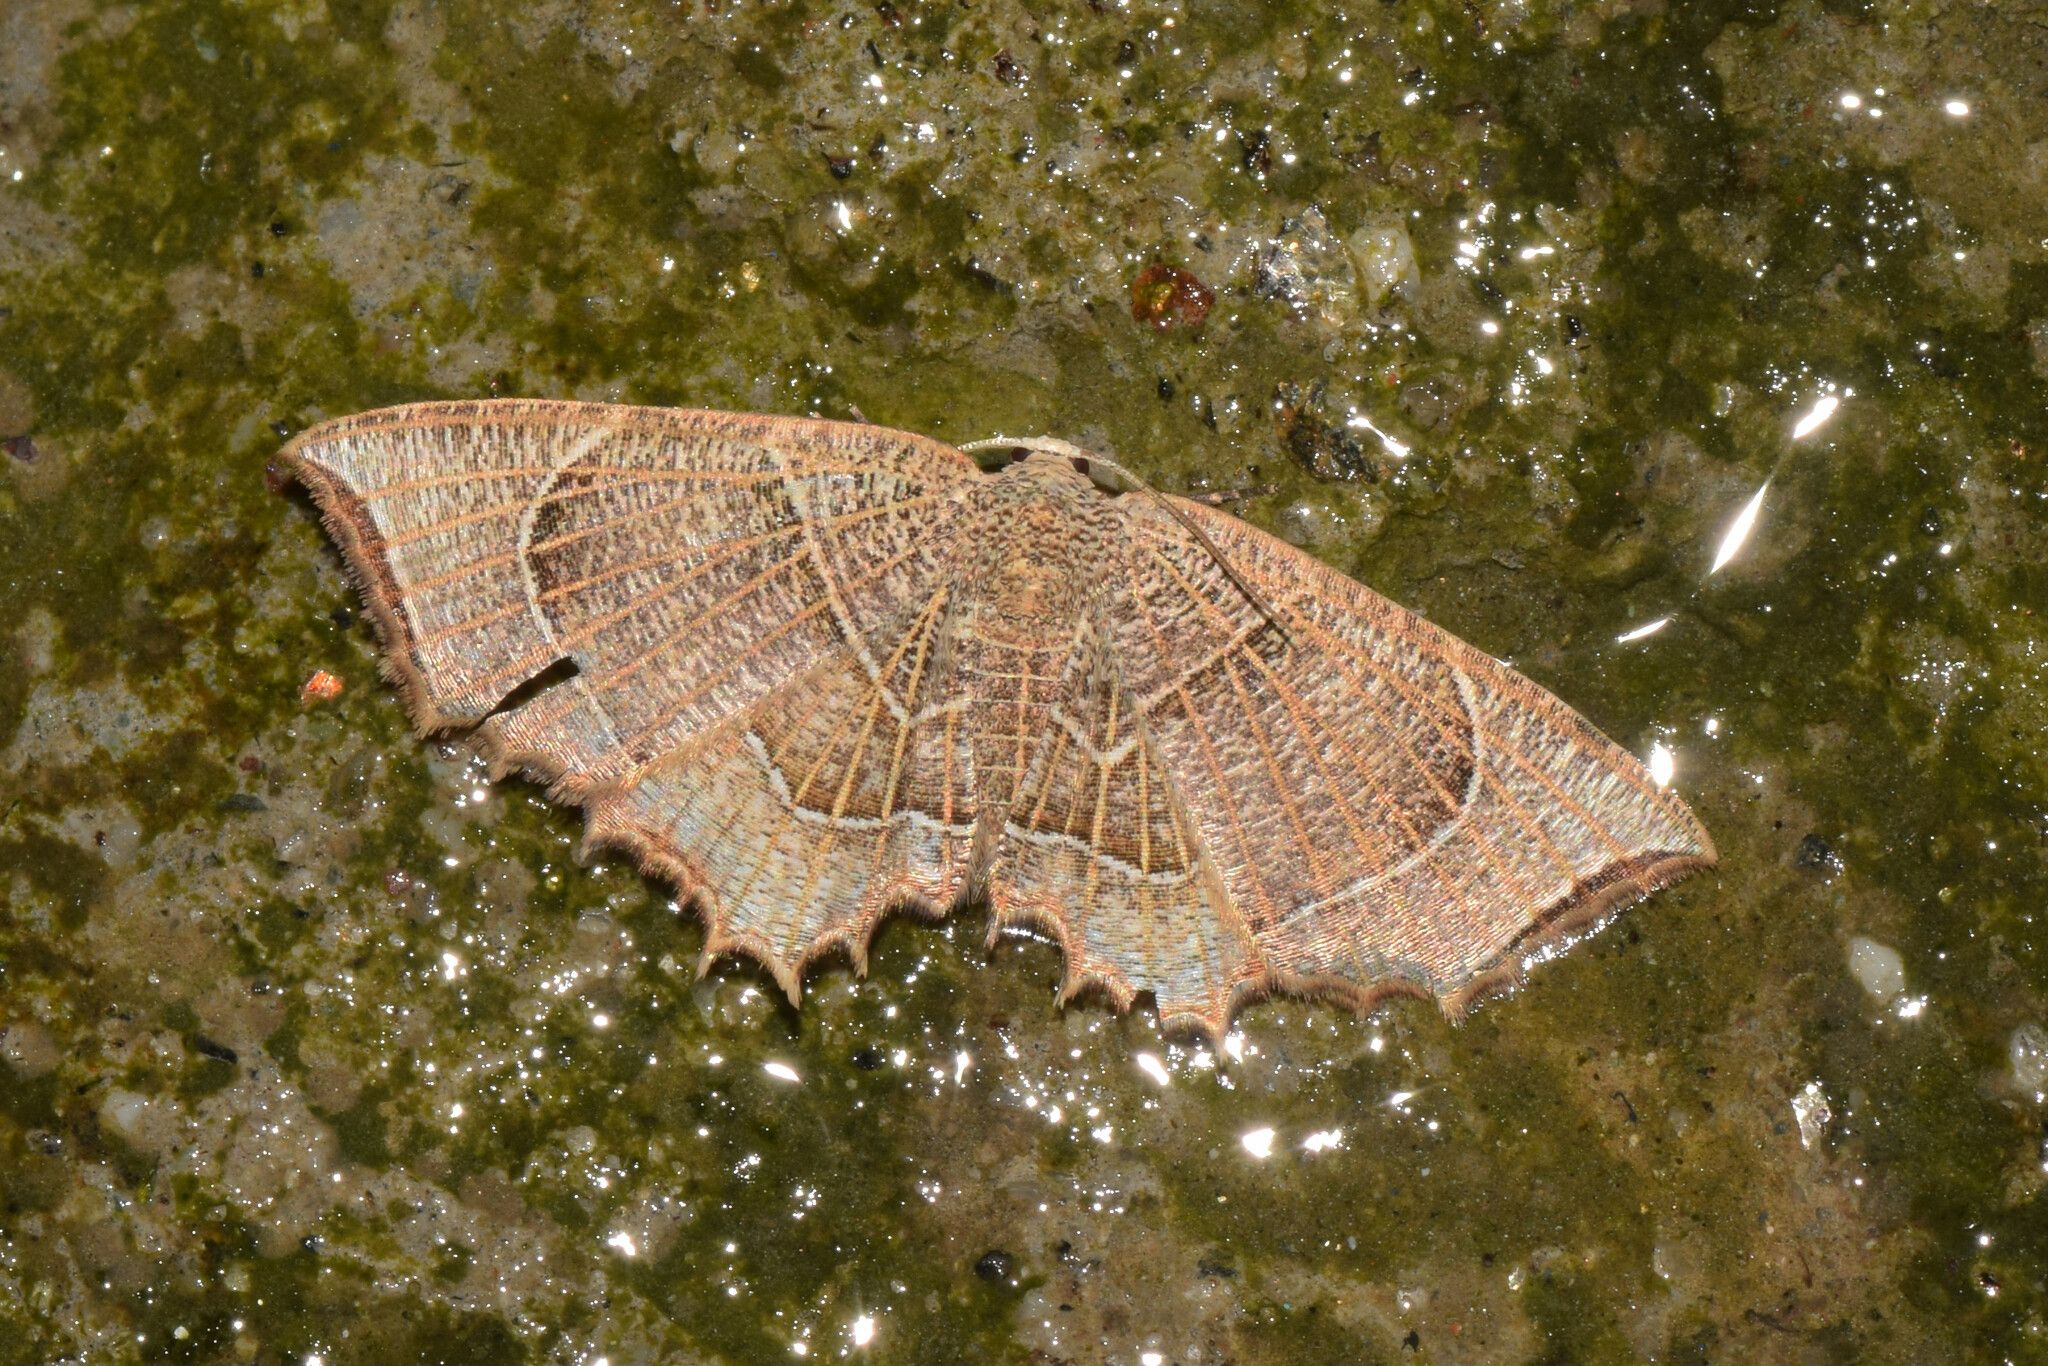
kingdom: Animalia
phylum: Arthropoda
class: Insecta
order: Lepidoptera
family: Uraniidae
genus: Epiplema
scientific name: Epiplema
